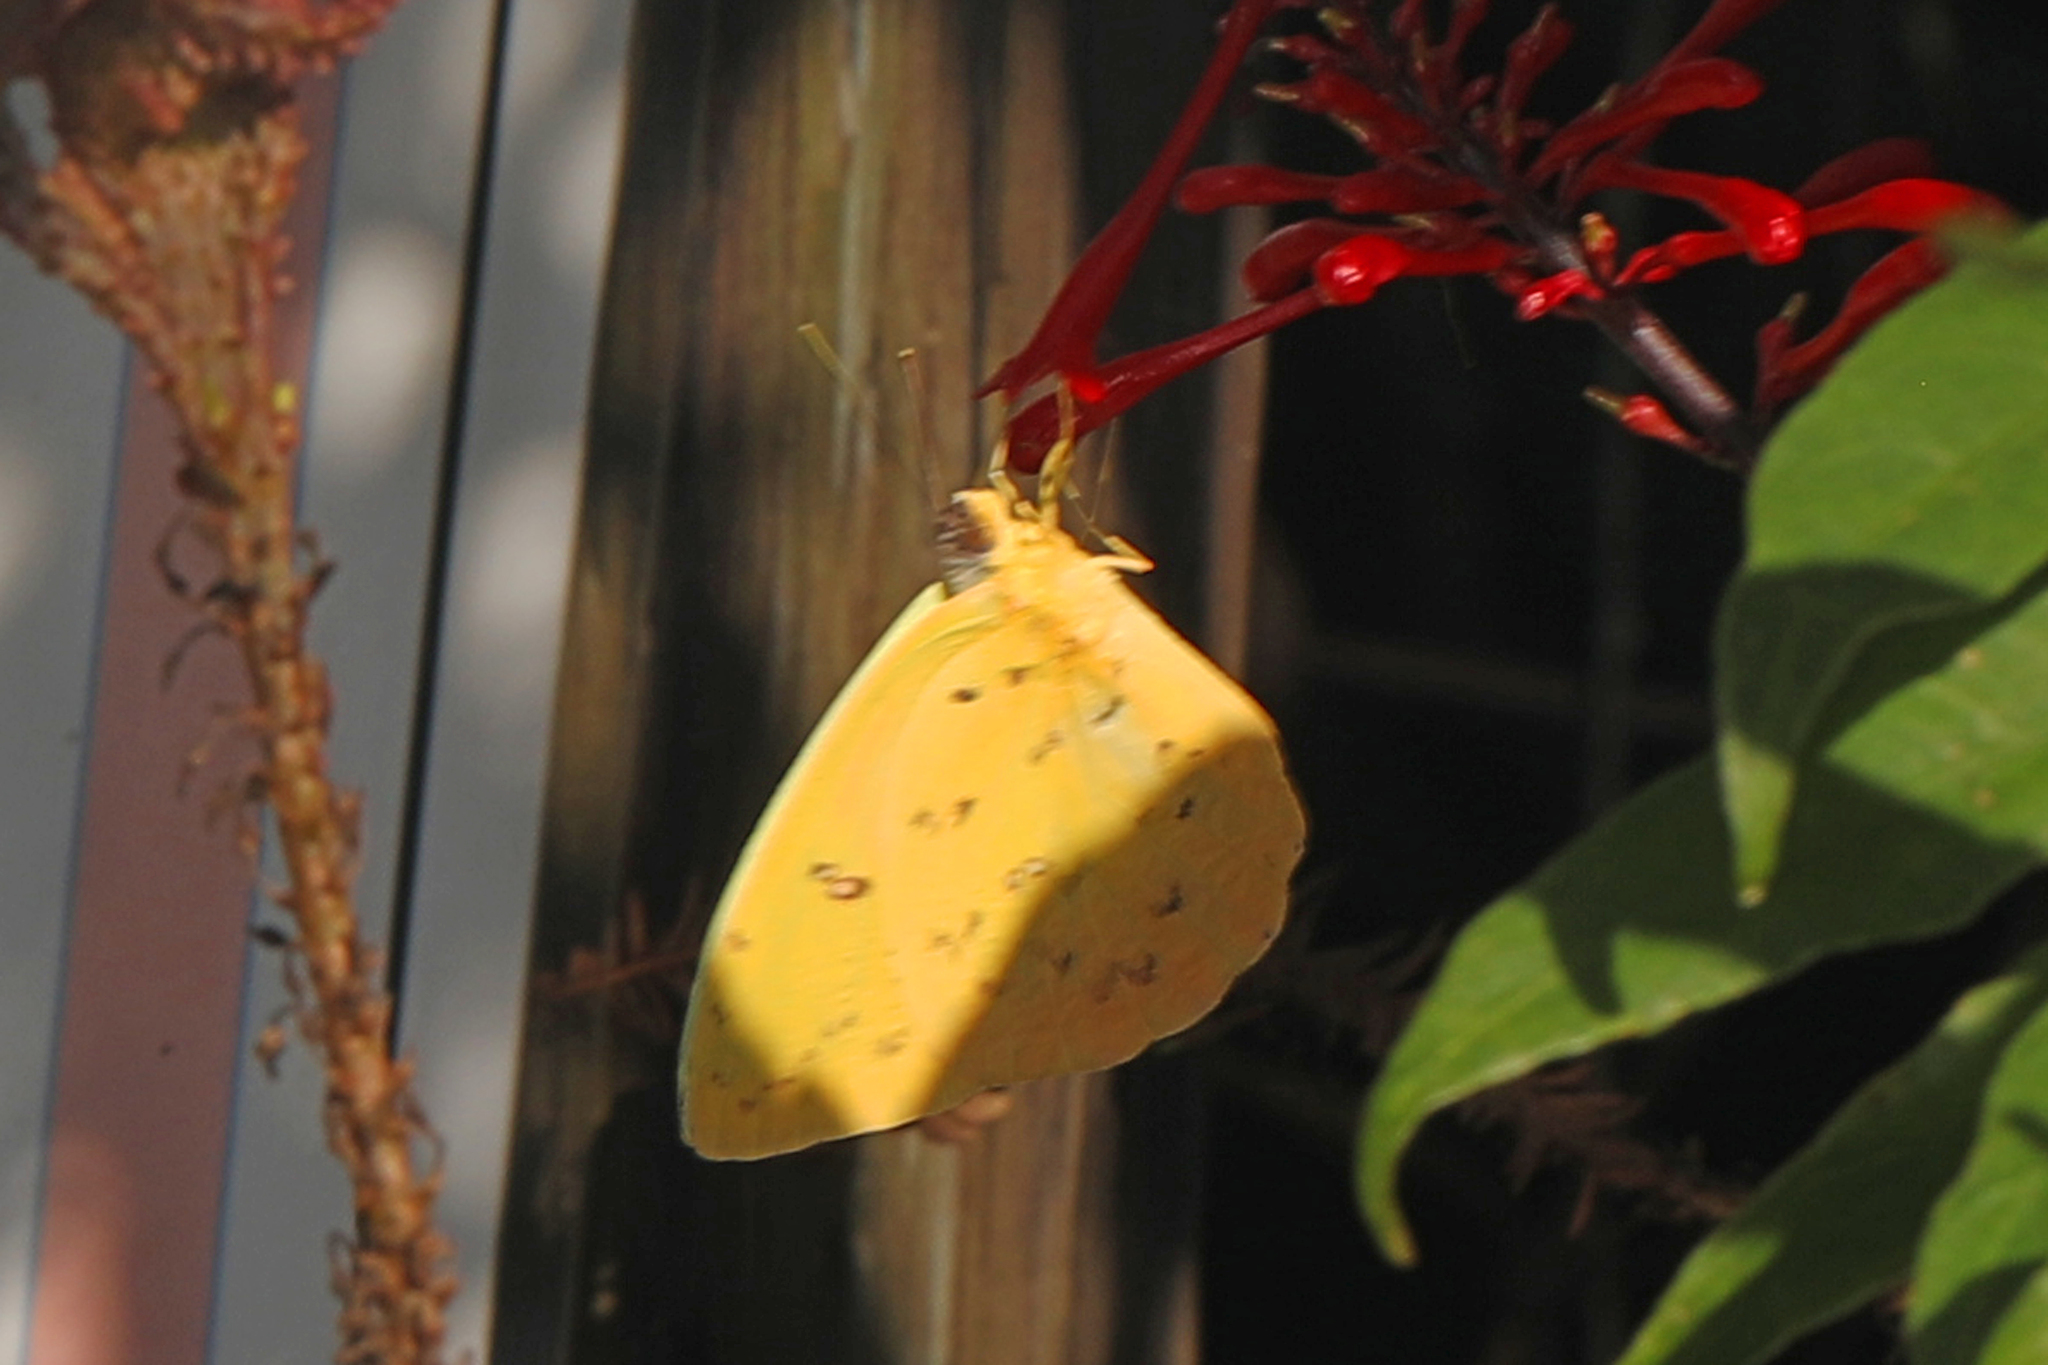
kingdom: Animalia
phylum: Arthropoda
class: Insecta
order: Lepidoptera
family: Pieridae
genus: Phoebis
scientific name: Phoebis philea
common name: Orange-barred giant sulphur
